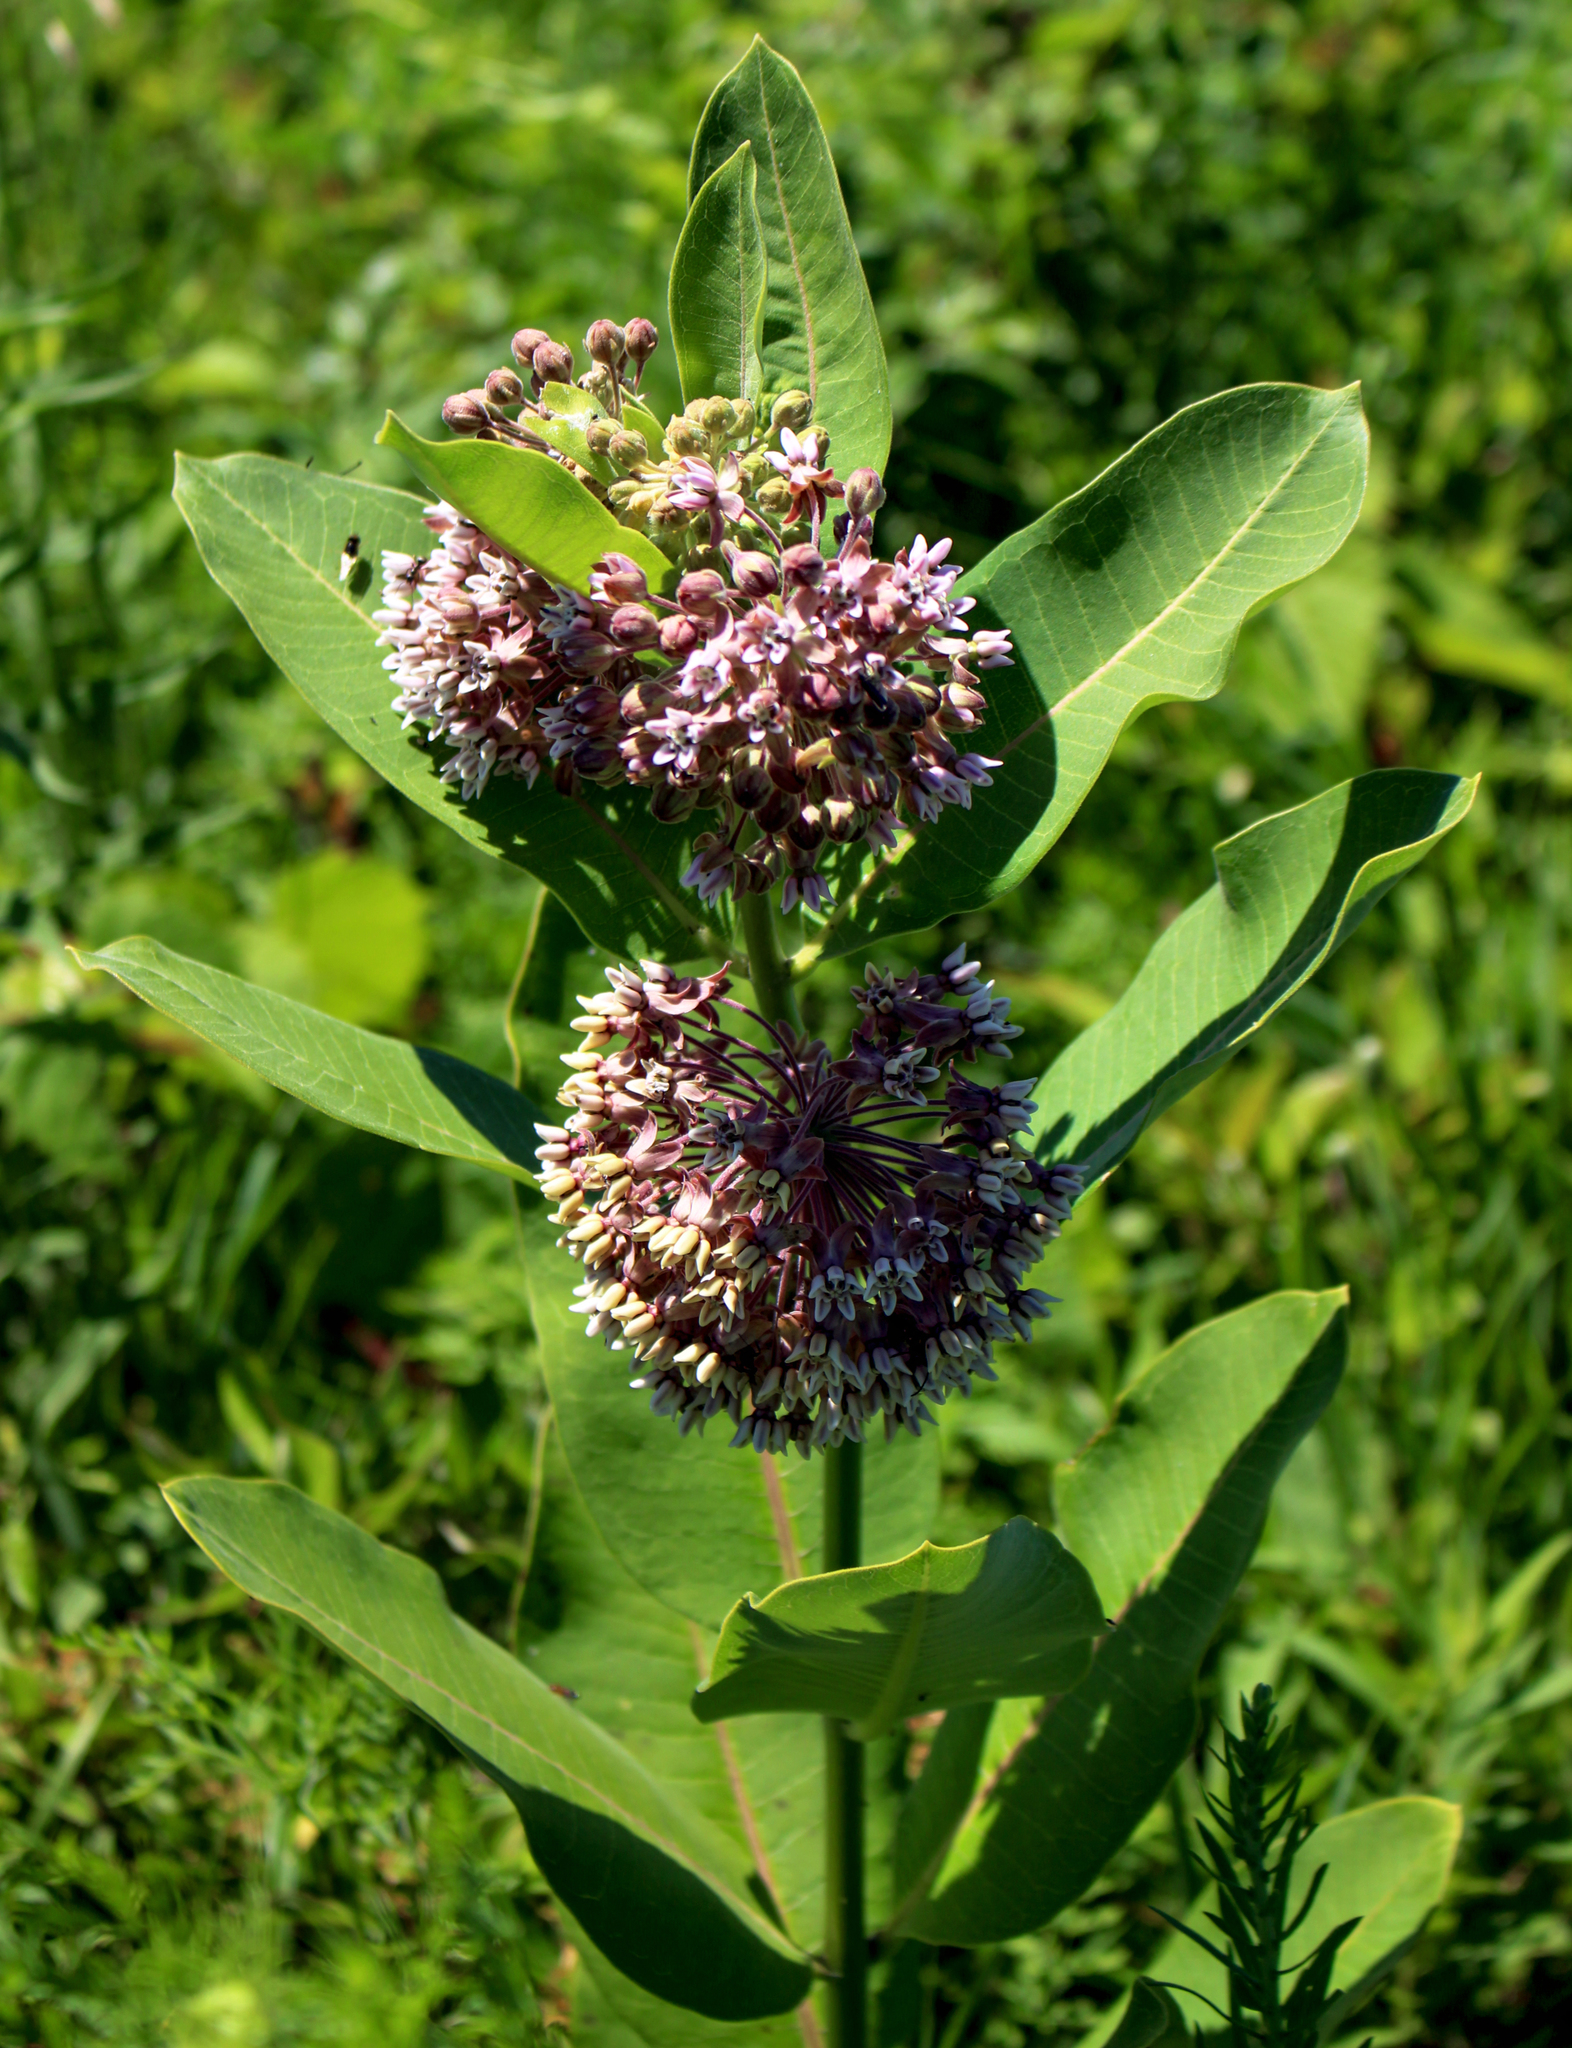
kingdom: Plantae
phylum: Tracheophyta
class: Magnoliopsida
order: Gentianales
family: Apocynaceae
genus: Asclepias
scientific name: Asclepias syriaca
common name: Common milkweed
